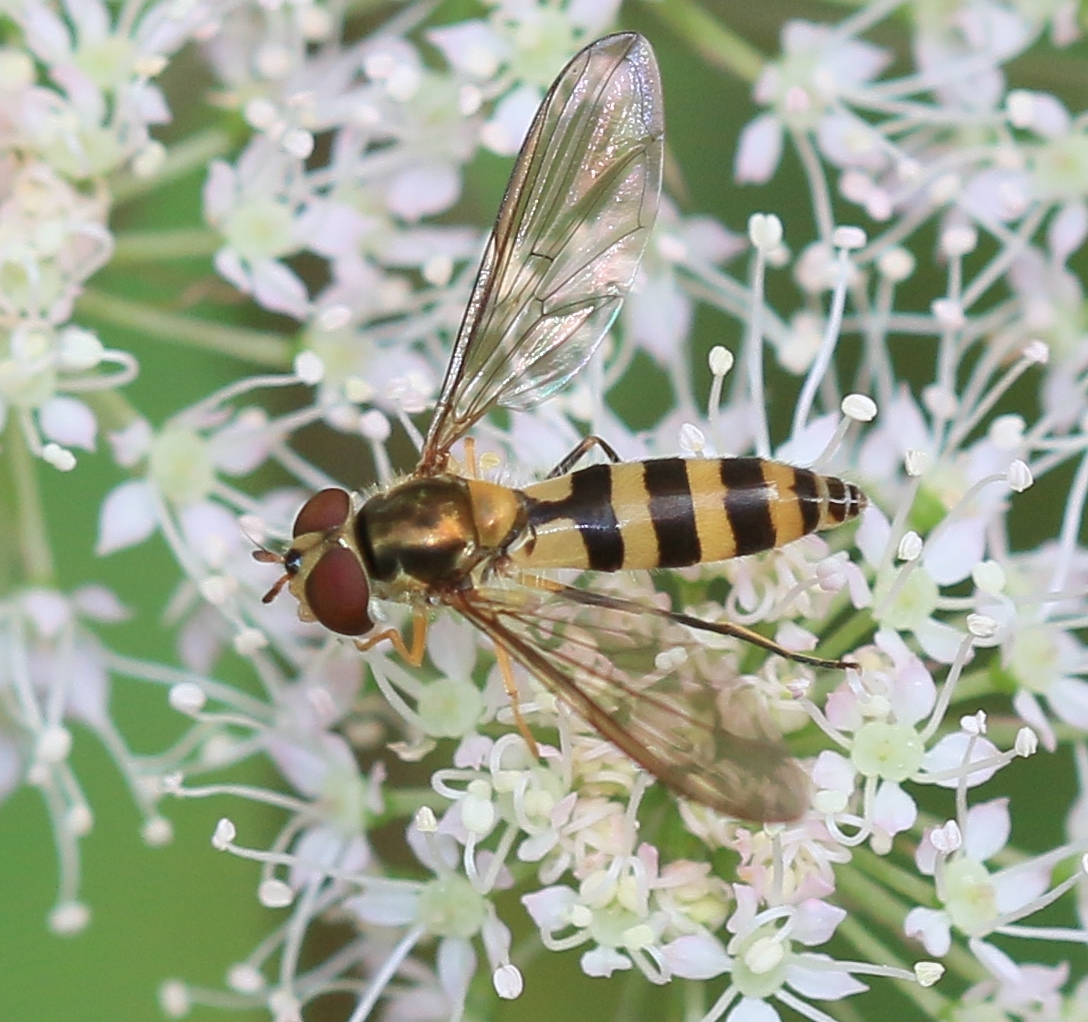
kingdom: Animalia
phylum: Arthropoda
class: Insecta
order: Diptera
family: Syrphidae
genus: Meliscaeva
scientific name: Meliscaeva cinctella
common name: American thintail fly
